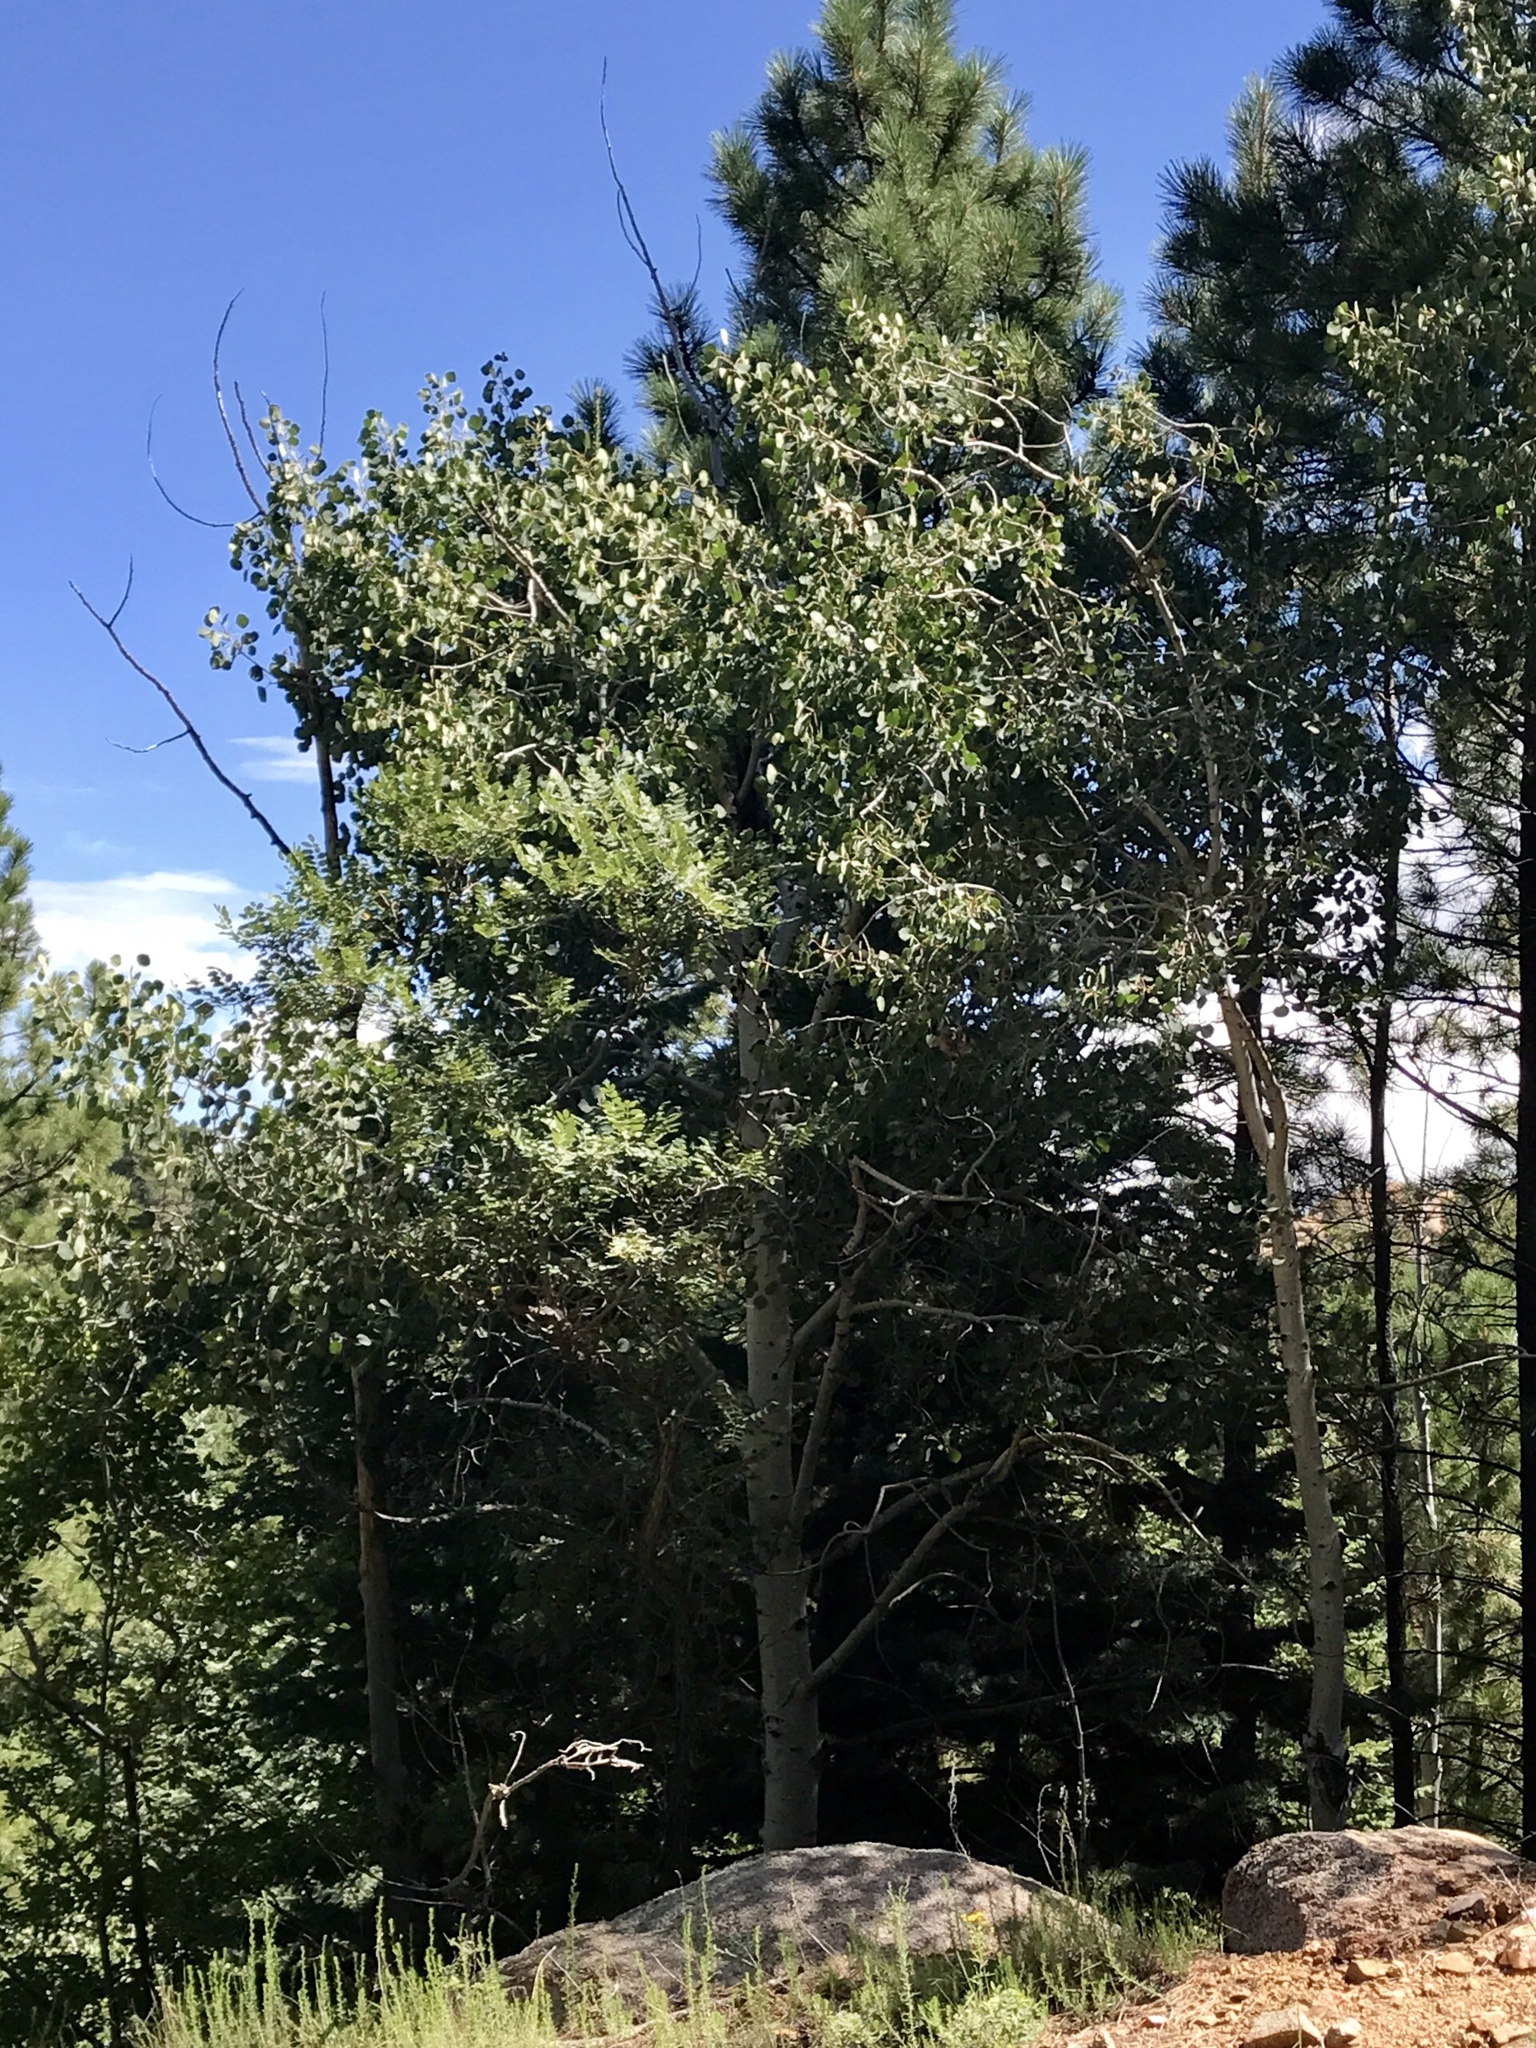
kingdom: Plantae
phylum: Tracheophyta
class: Magnoliopsida
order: Malpighiales
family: Salicaceae
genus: Populus
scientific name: Populus tremuloides
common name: Quaking aspen
